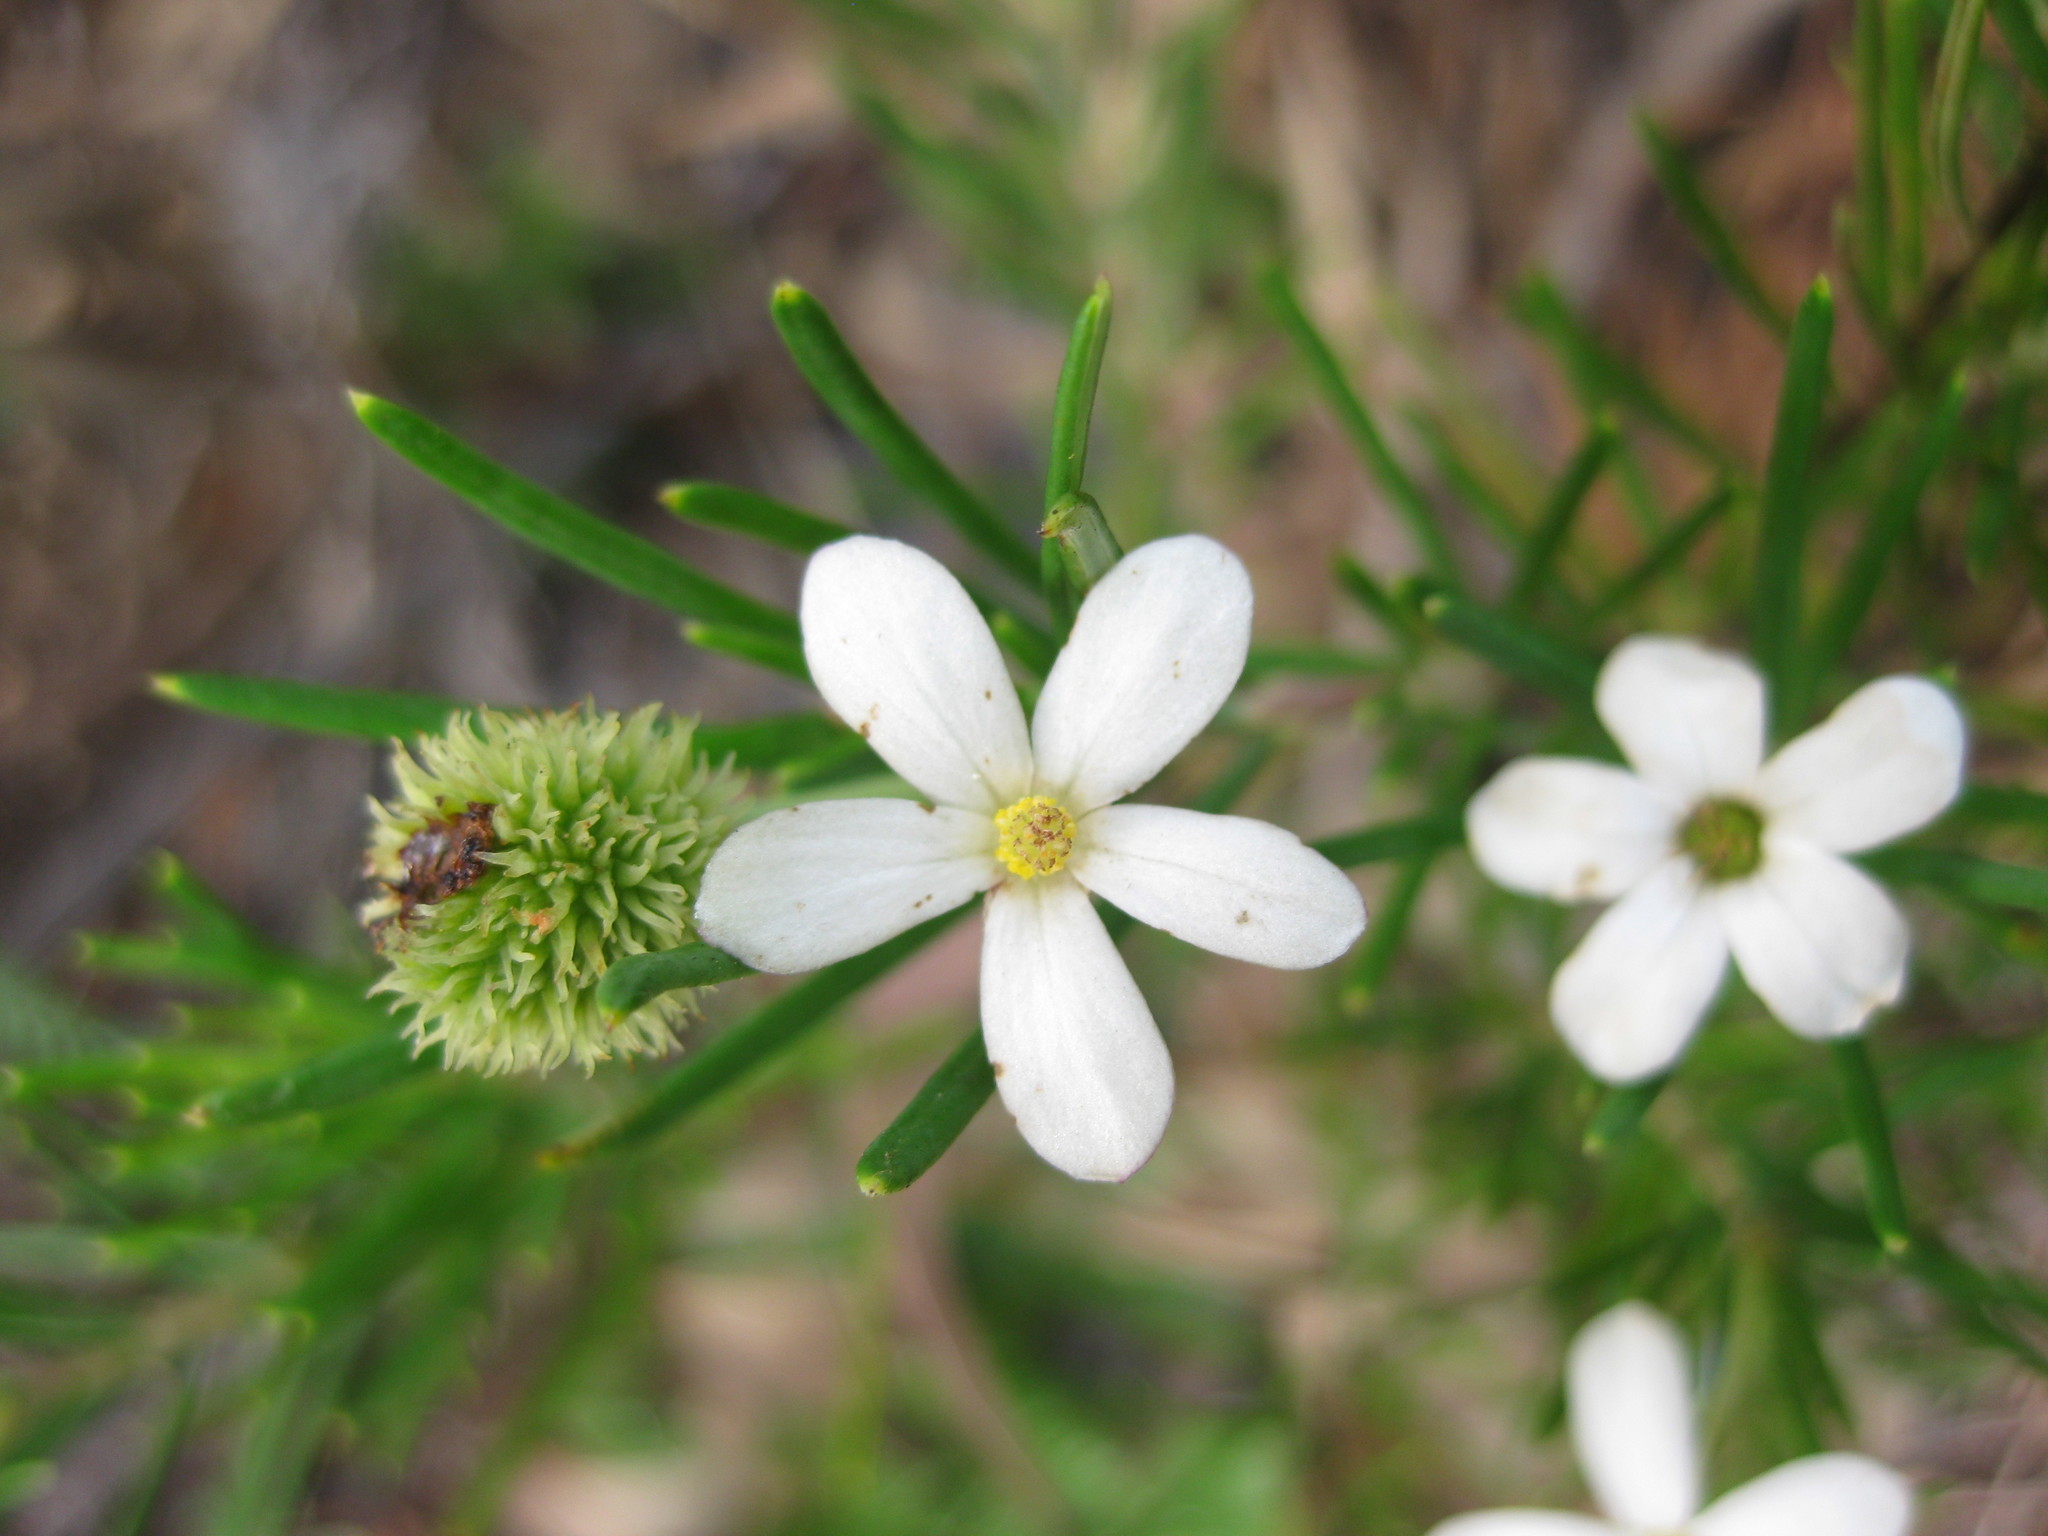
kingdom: Plantae
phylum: Tracheophyta
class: Magnoliopsida
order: Malpighiales
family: Euphorbiaceae
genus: Ricinocarpos
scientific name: Ricinocarpos pinifolius
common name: Weddingbush
